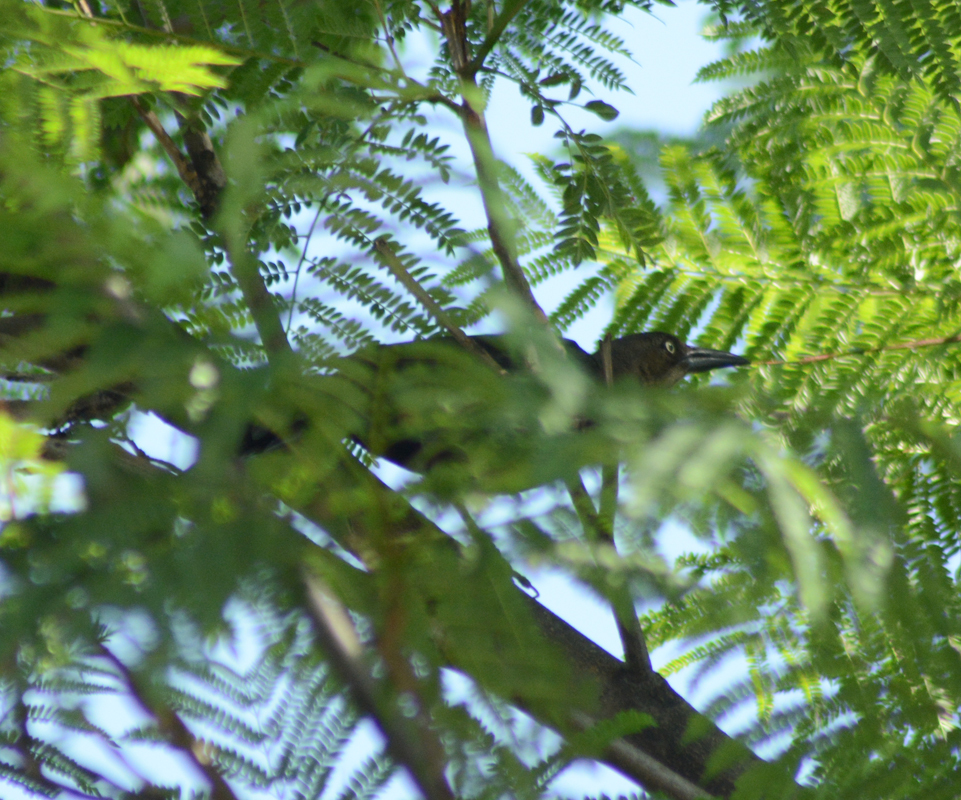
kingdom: Animalia
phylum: Chordata
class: Aves
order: Passeriformes
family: Icteridae
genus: Quiscalus
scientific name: Quiscalus mexicanus
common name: Great-tailed grackle
